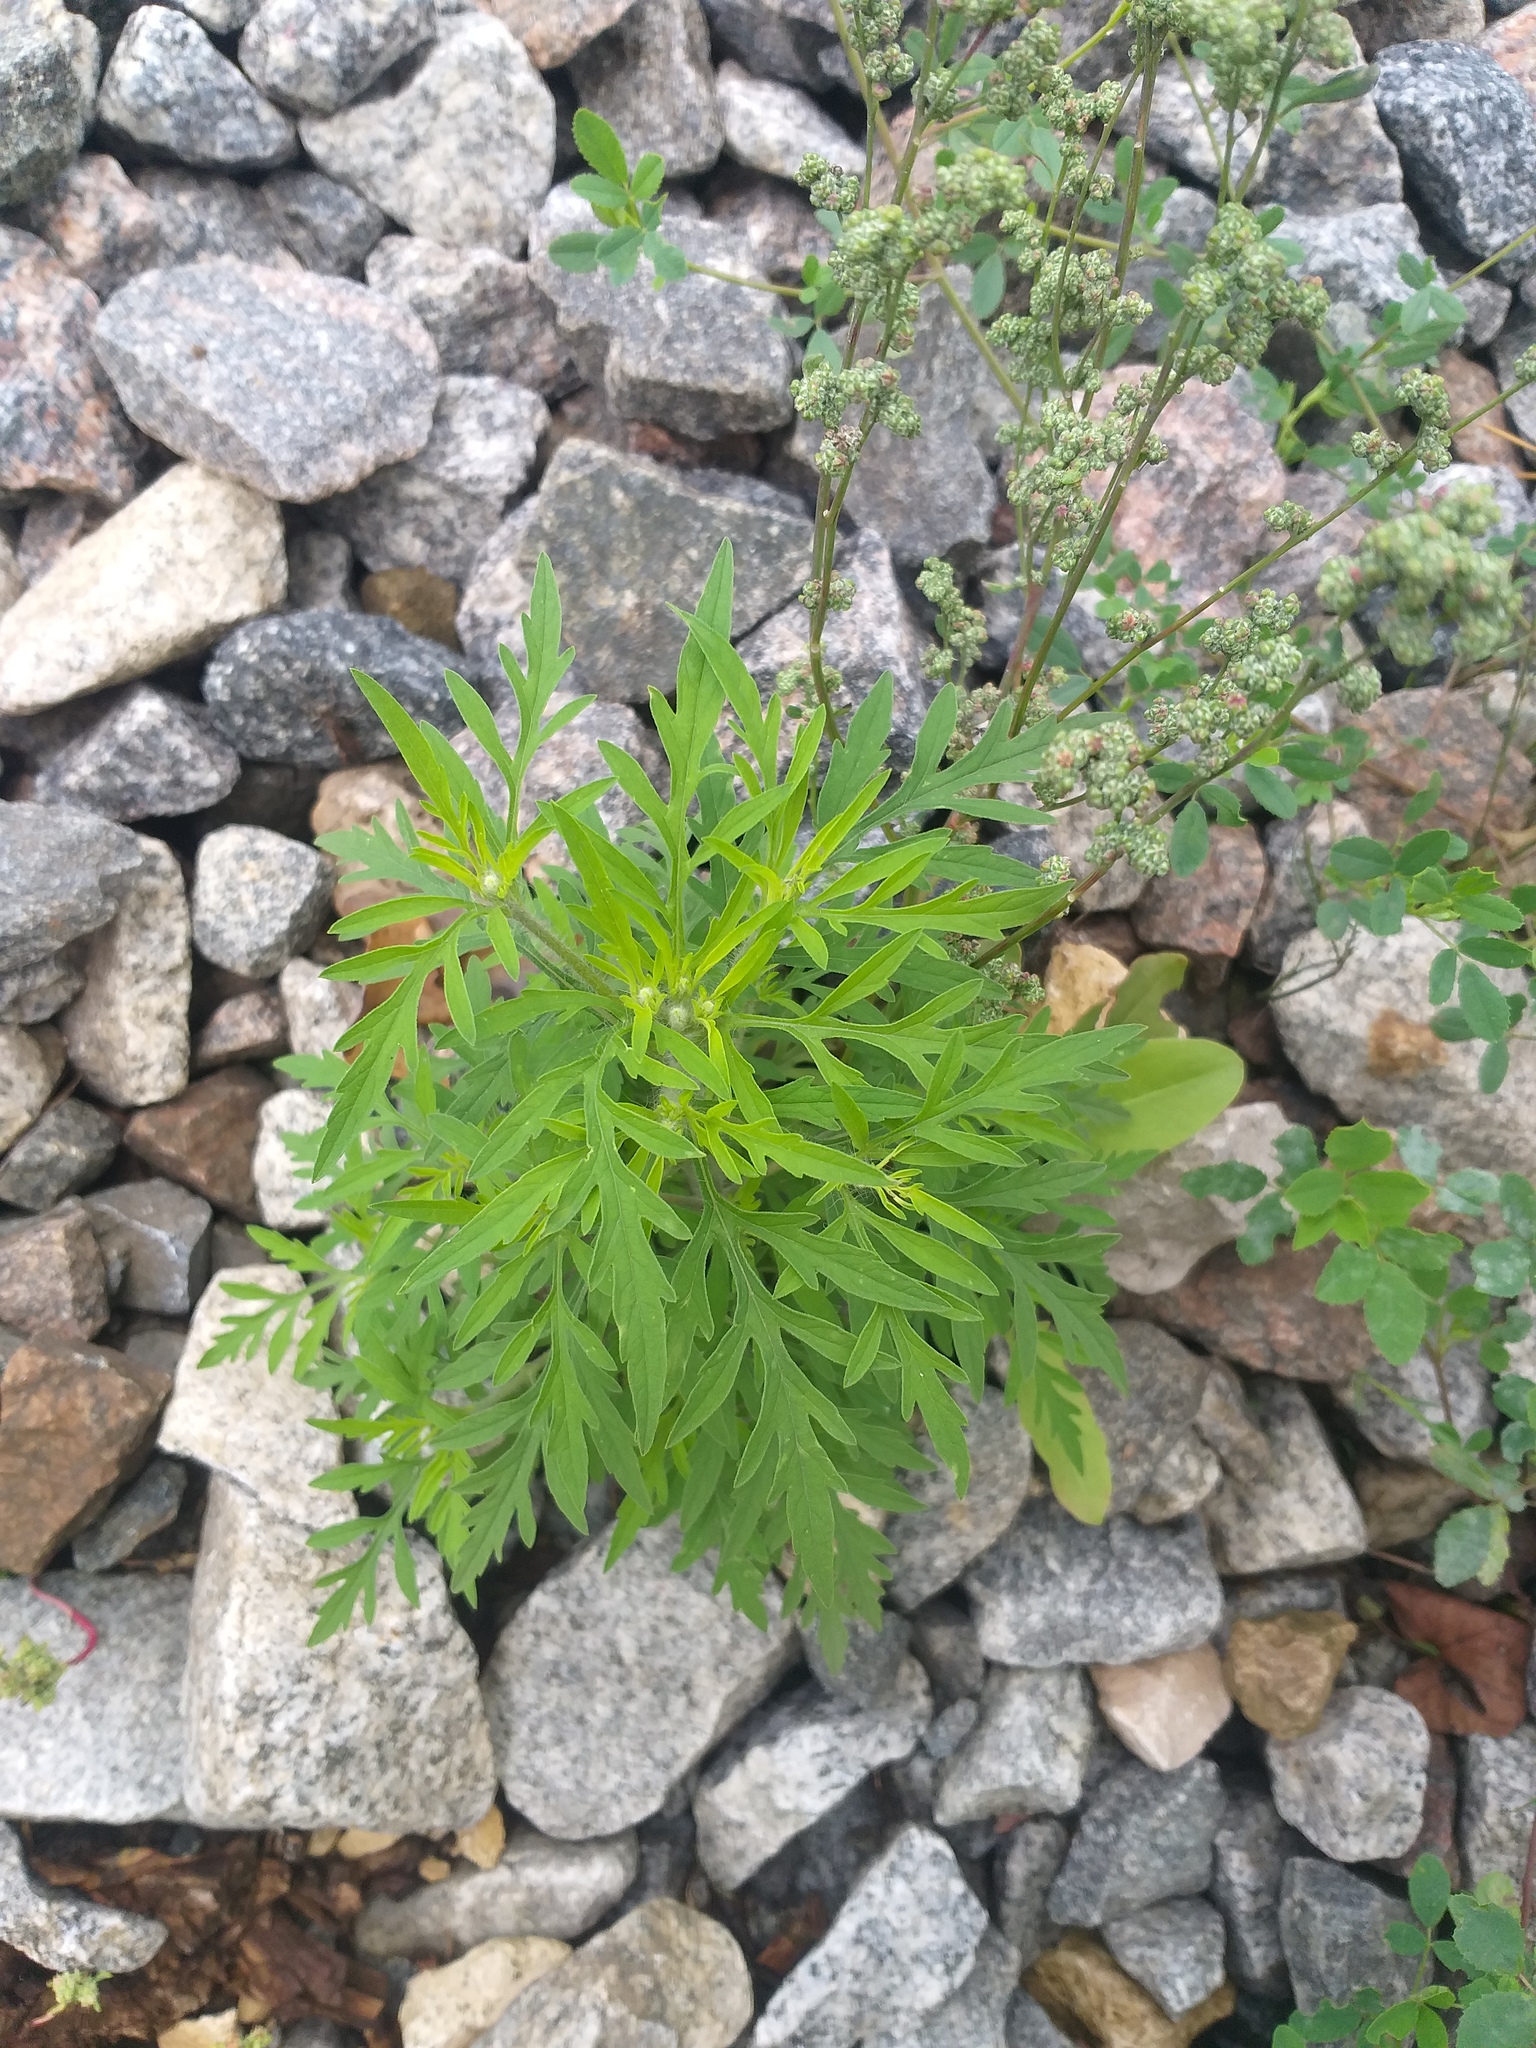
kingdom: Plantae
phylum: Tracheophyta
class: Magnoliopsida
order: Asterales
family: Asteraceae
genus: Ambrosia
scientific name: Ambrosia artemisiifolia
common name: Annual ragweed
